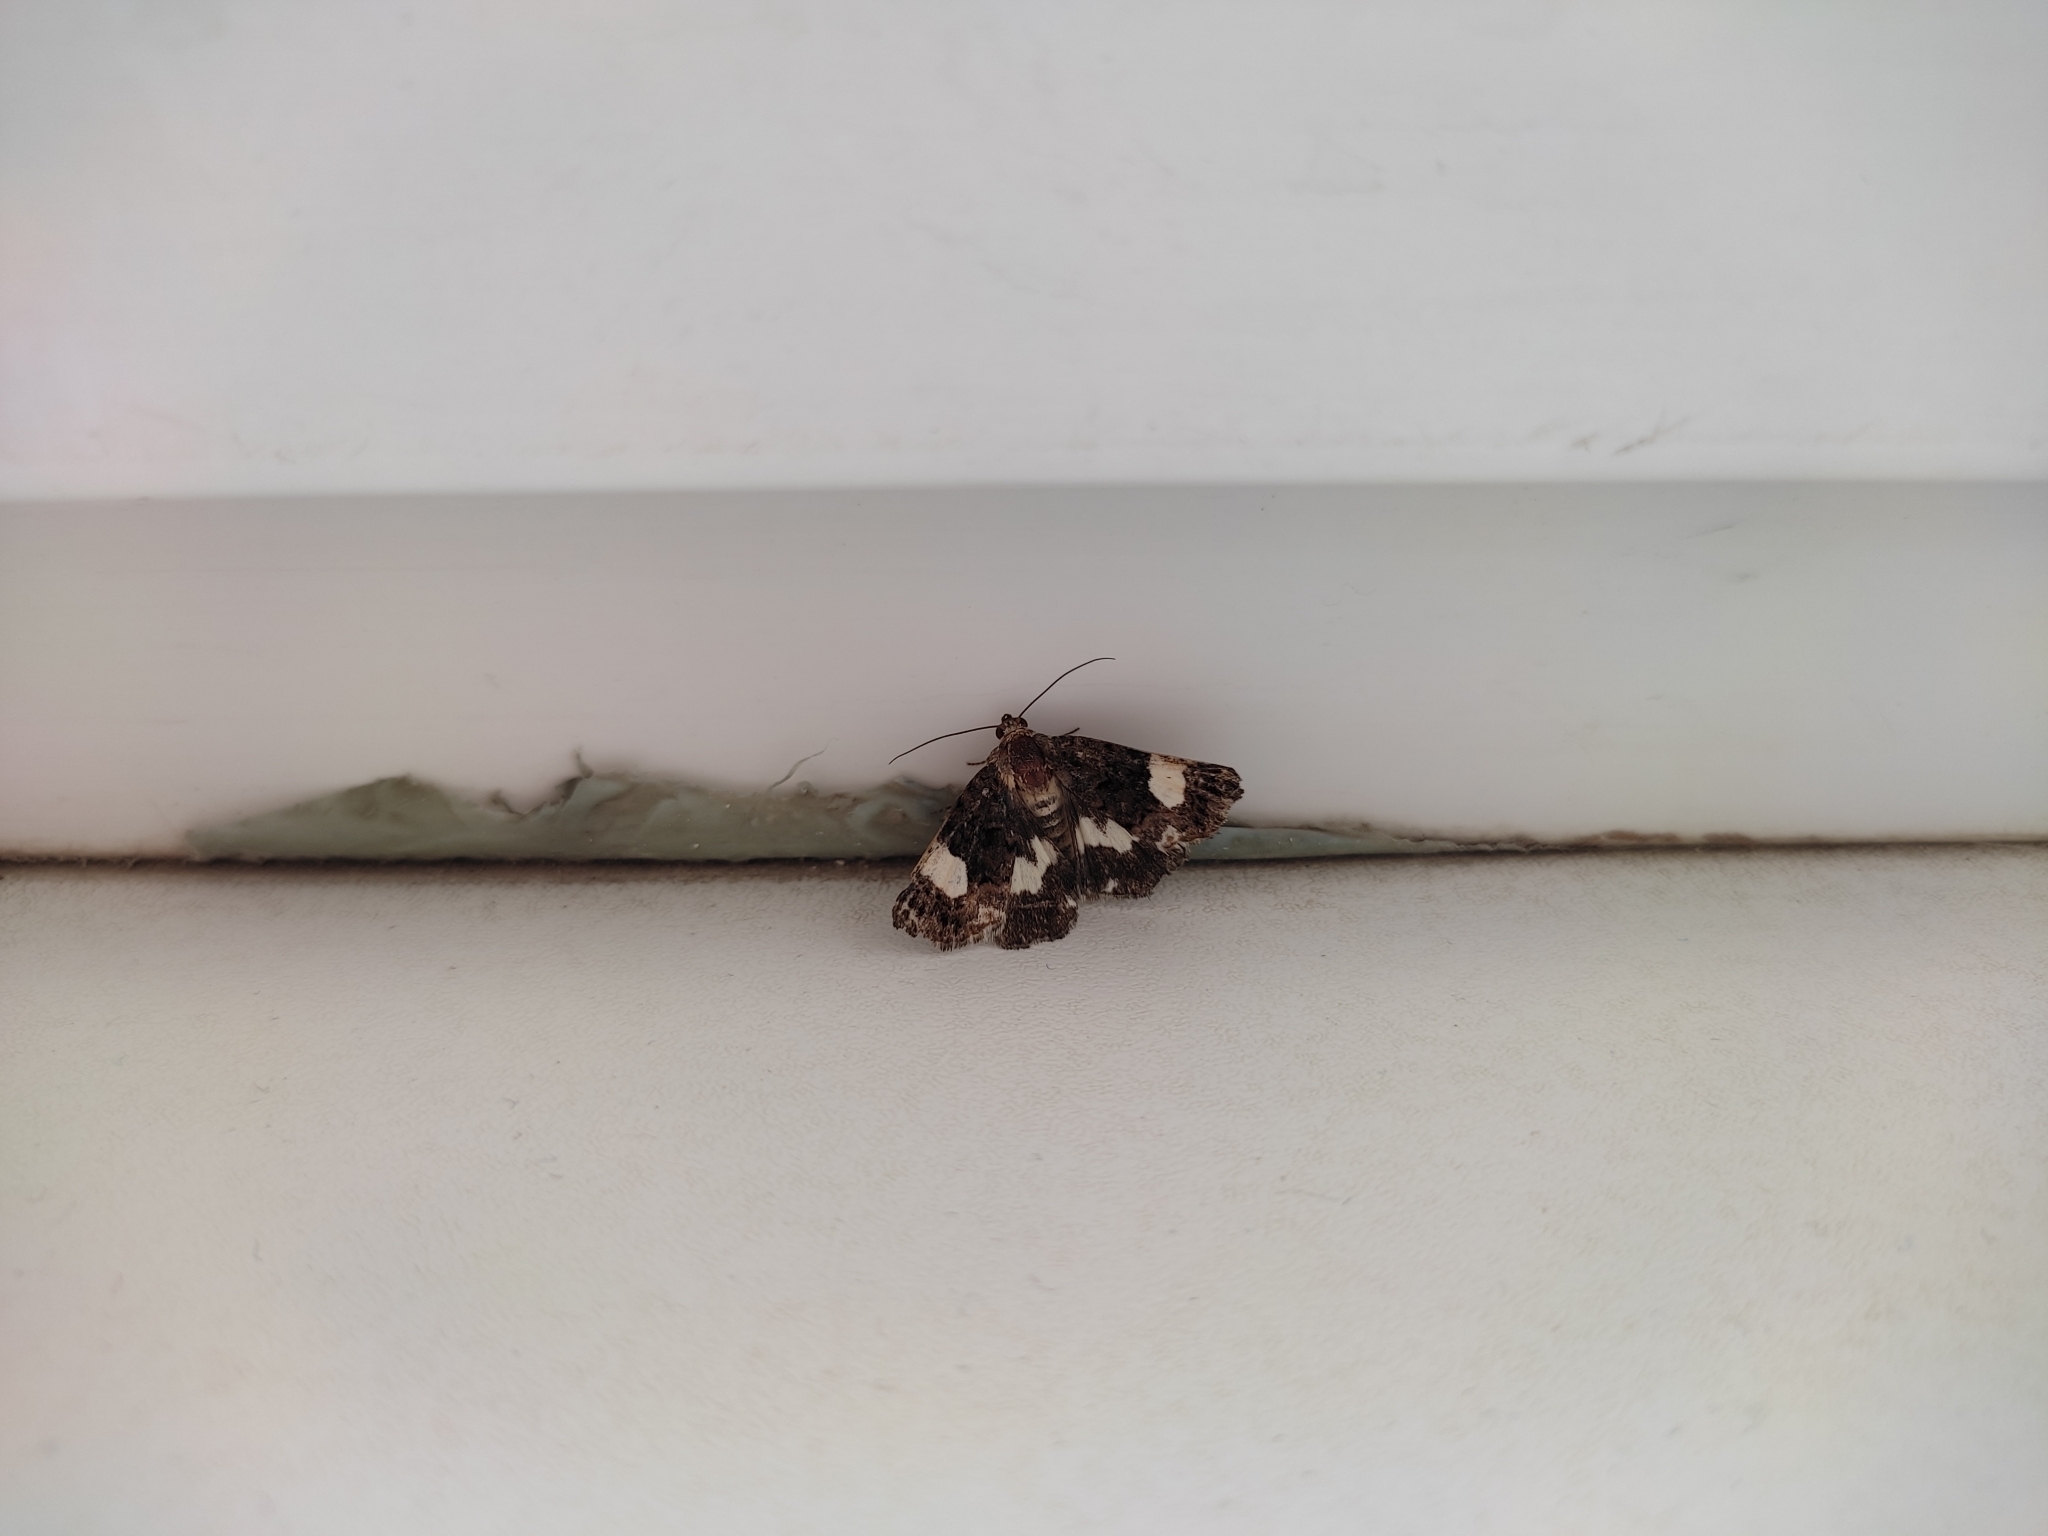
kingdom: Animalia
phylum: Arthropoda
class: Insecta
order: Lepidoptera
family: Erebidae
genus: Tyta
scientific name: Tyta luctuosa
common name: Four-spotted
